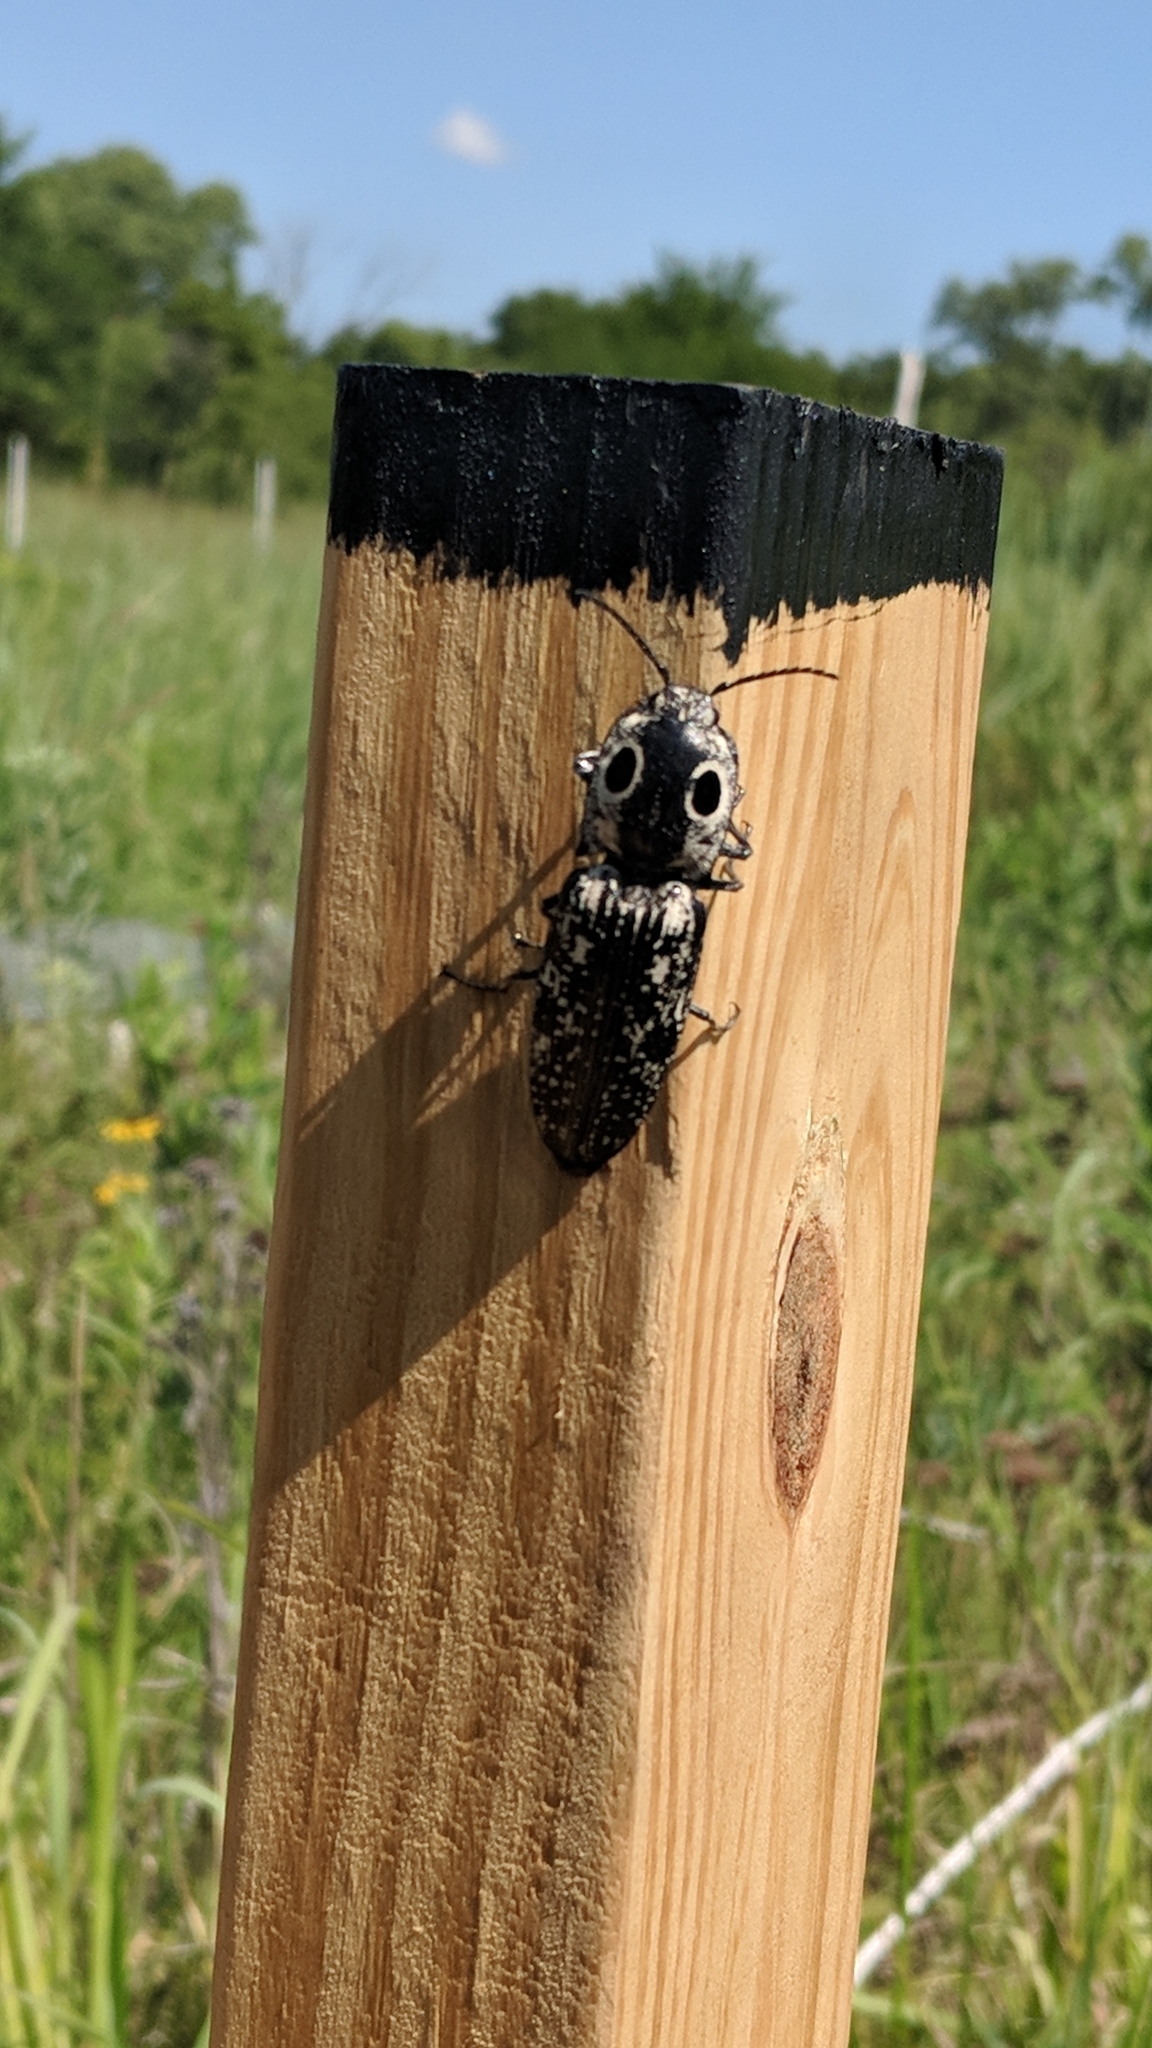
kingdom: Animalia
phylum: Arthropoda
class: Insecta
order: Coleoptera
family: Elateridae
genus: Alaus
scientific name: Alaus oculatus
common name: Eastern eyed click beetle
